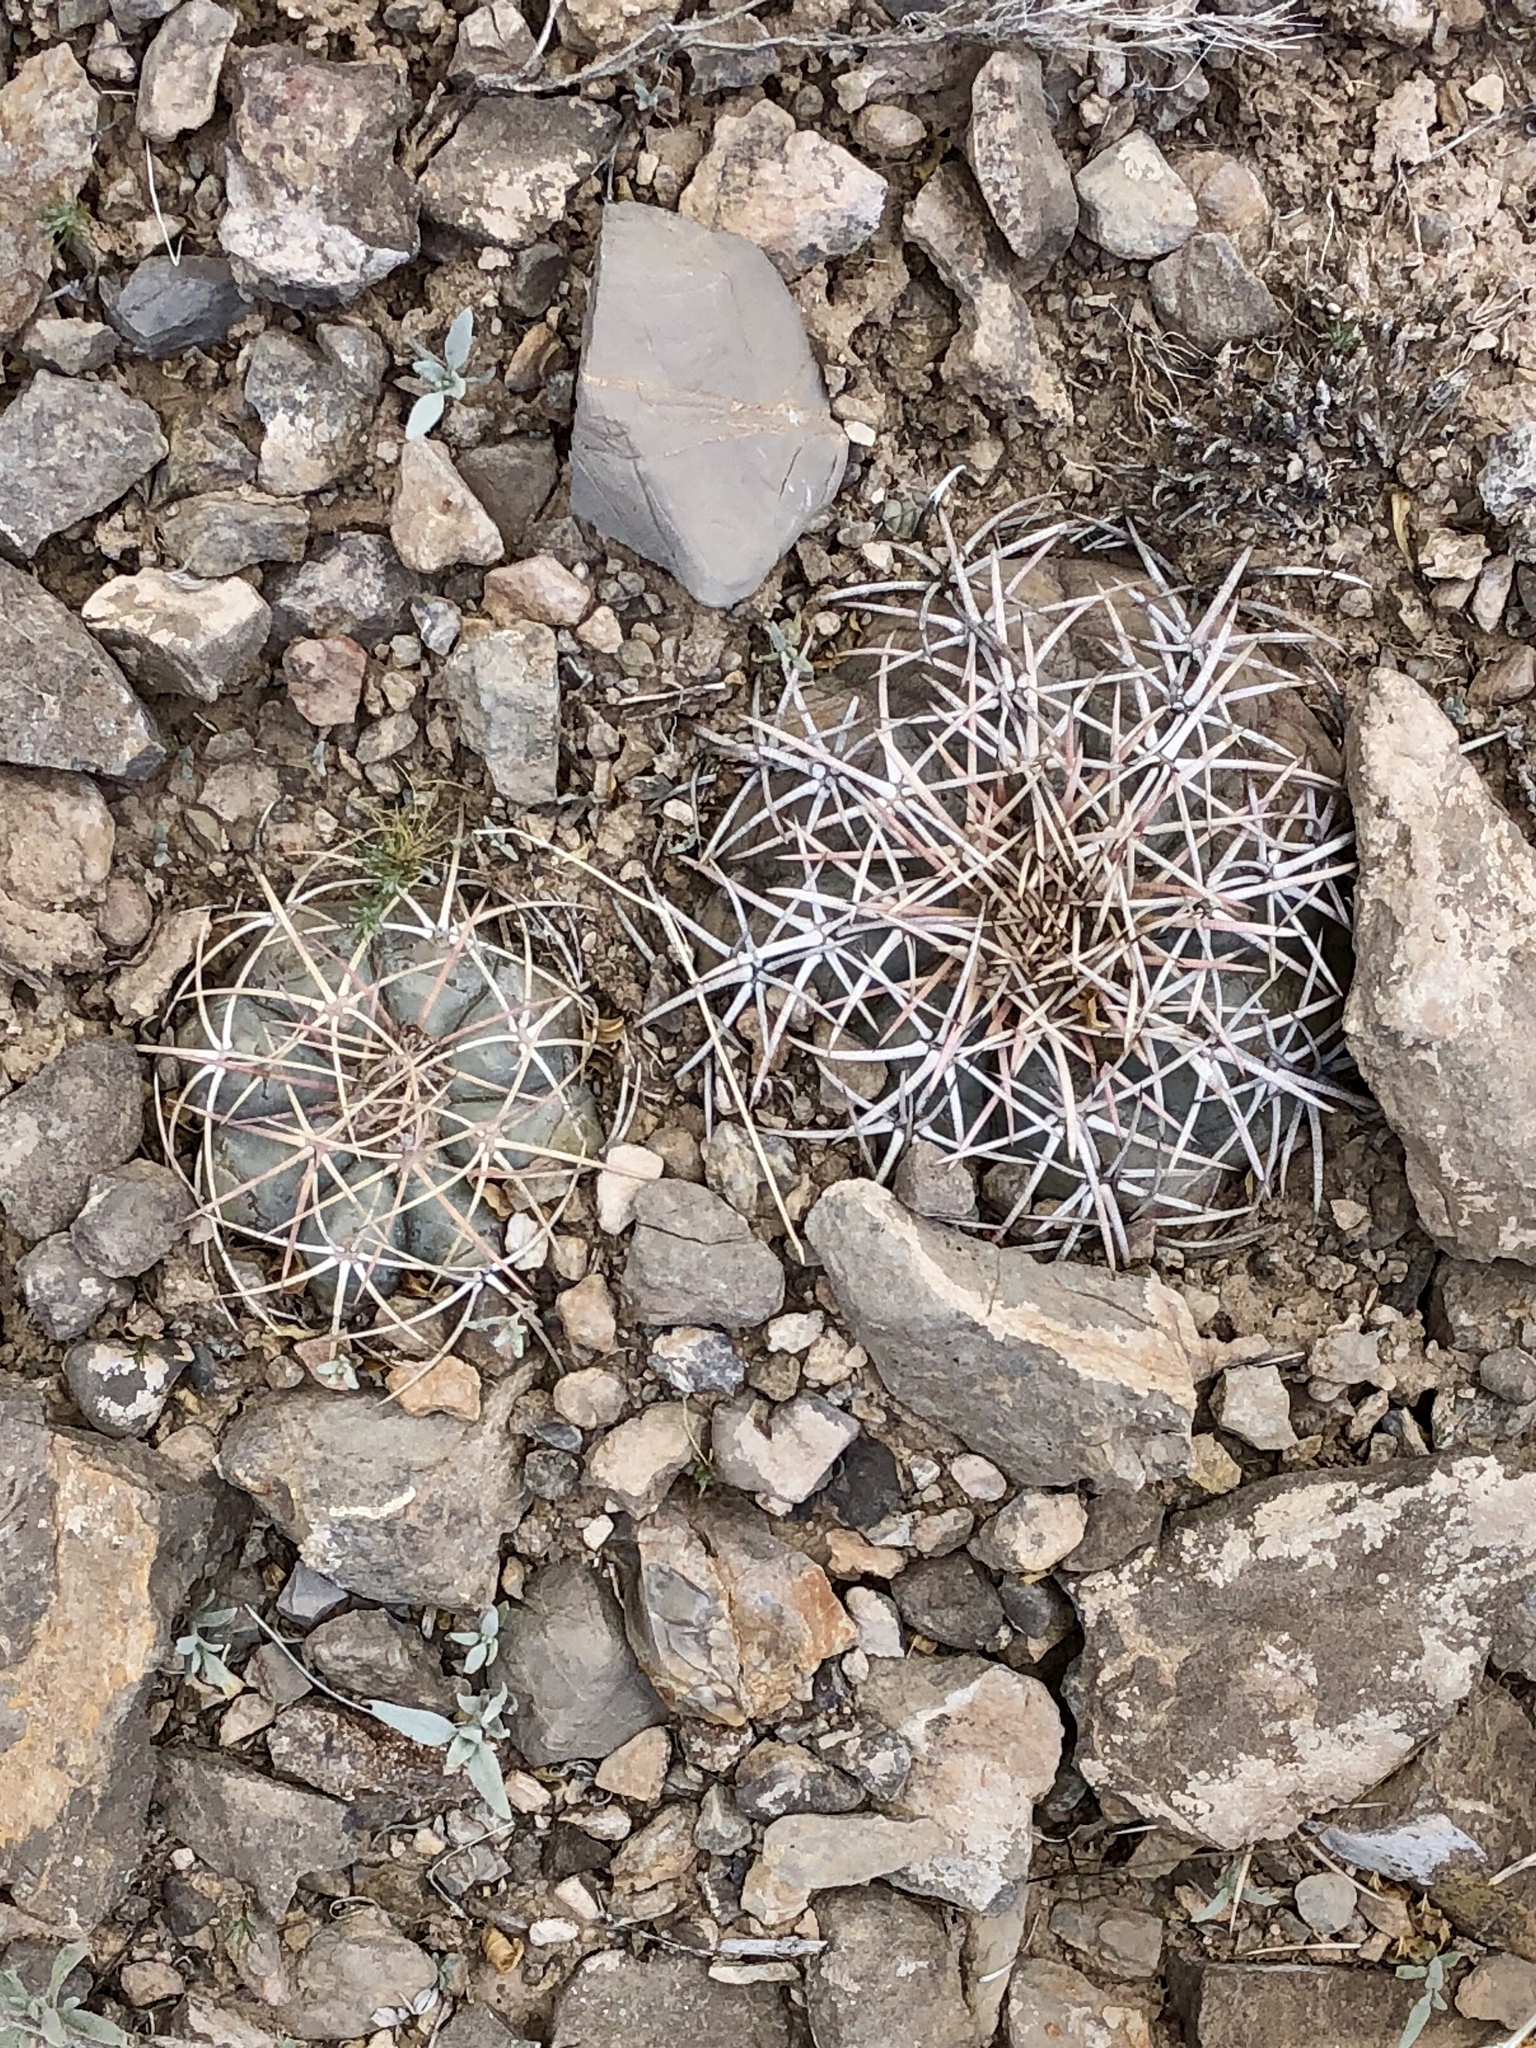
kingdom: Plantae
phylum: Tracheophyta
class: Magnoliopsida
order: Caryophyllales
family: Cactaceae
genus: Echinocactus
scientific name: Echinocactus horizonthalonius
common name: Devilshead
